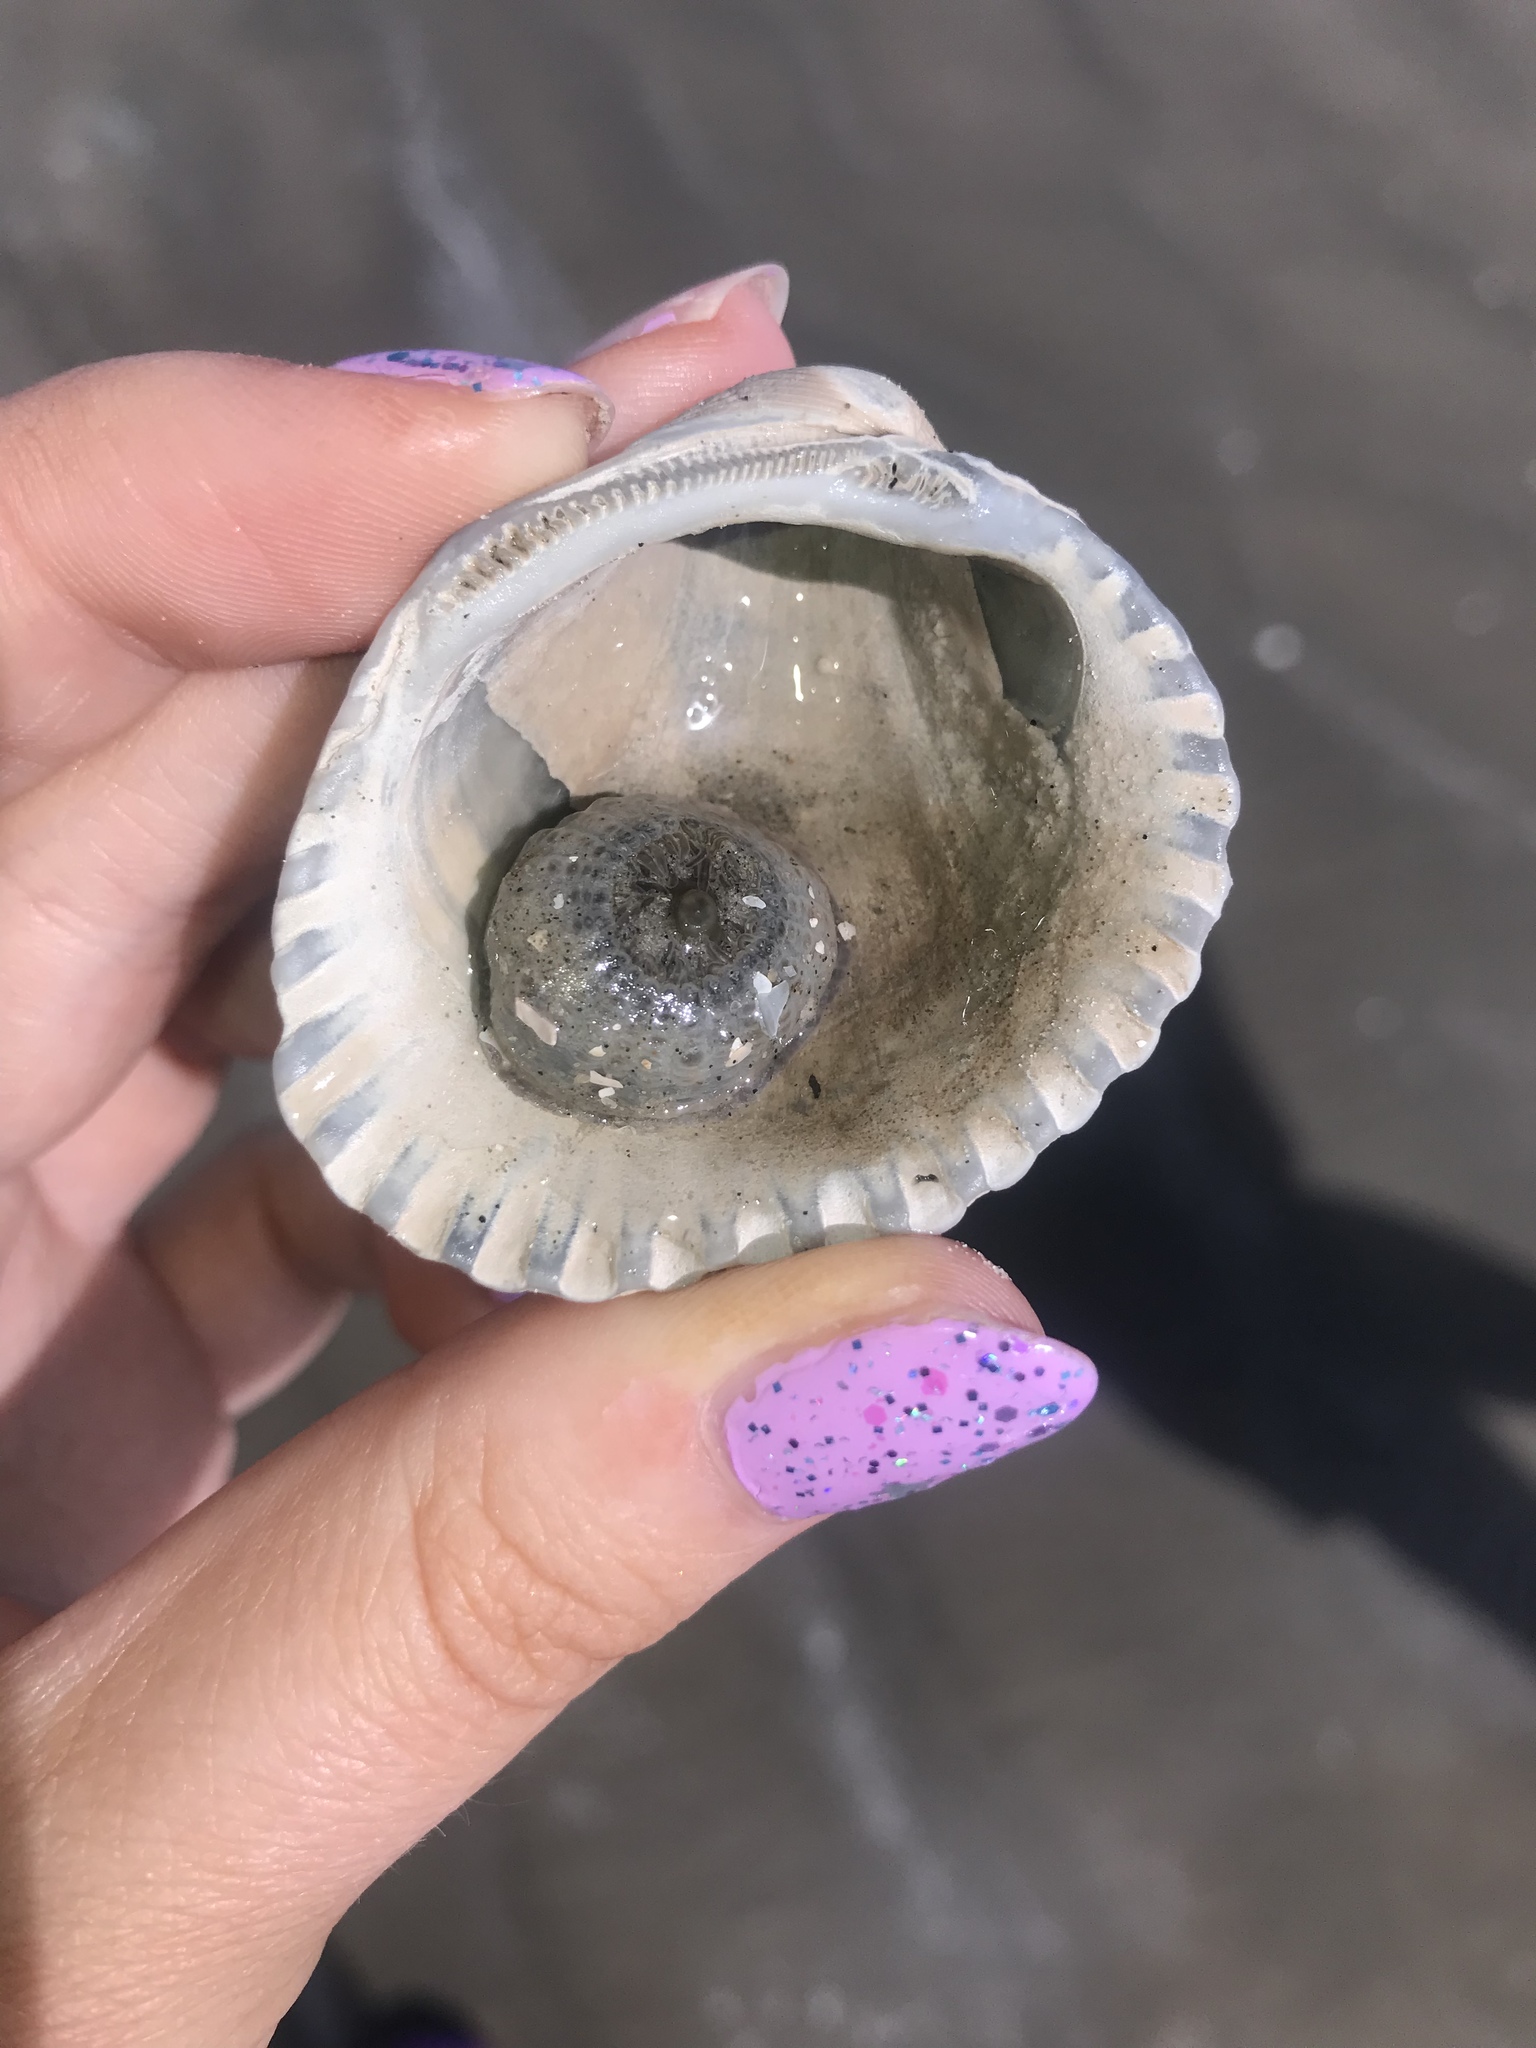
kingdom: Animalia
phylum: Cnidaria
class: Anthozoa
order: Actiniaria
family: Hormathiidae
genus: Calliactis
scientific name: Calliactis tricolor
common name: Hermit anemone
